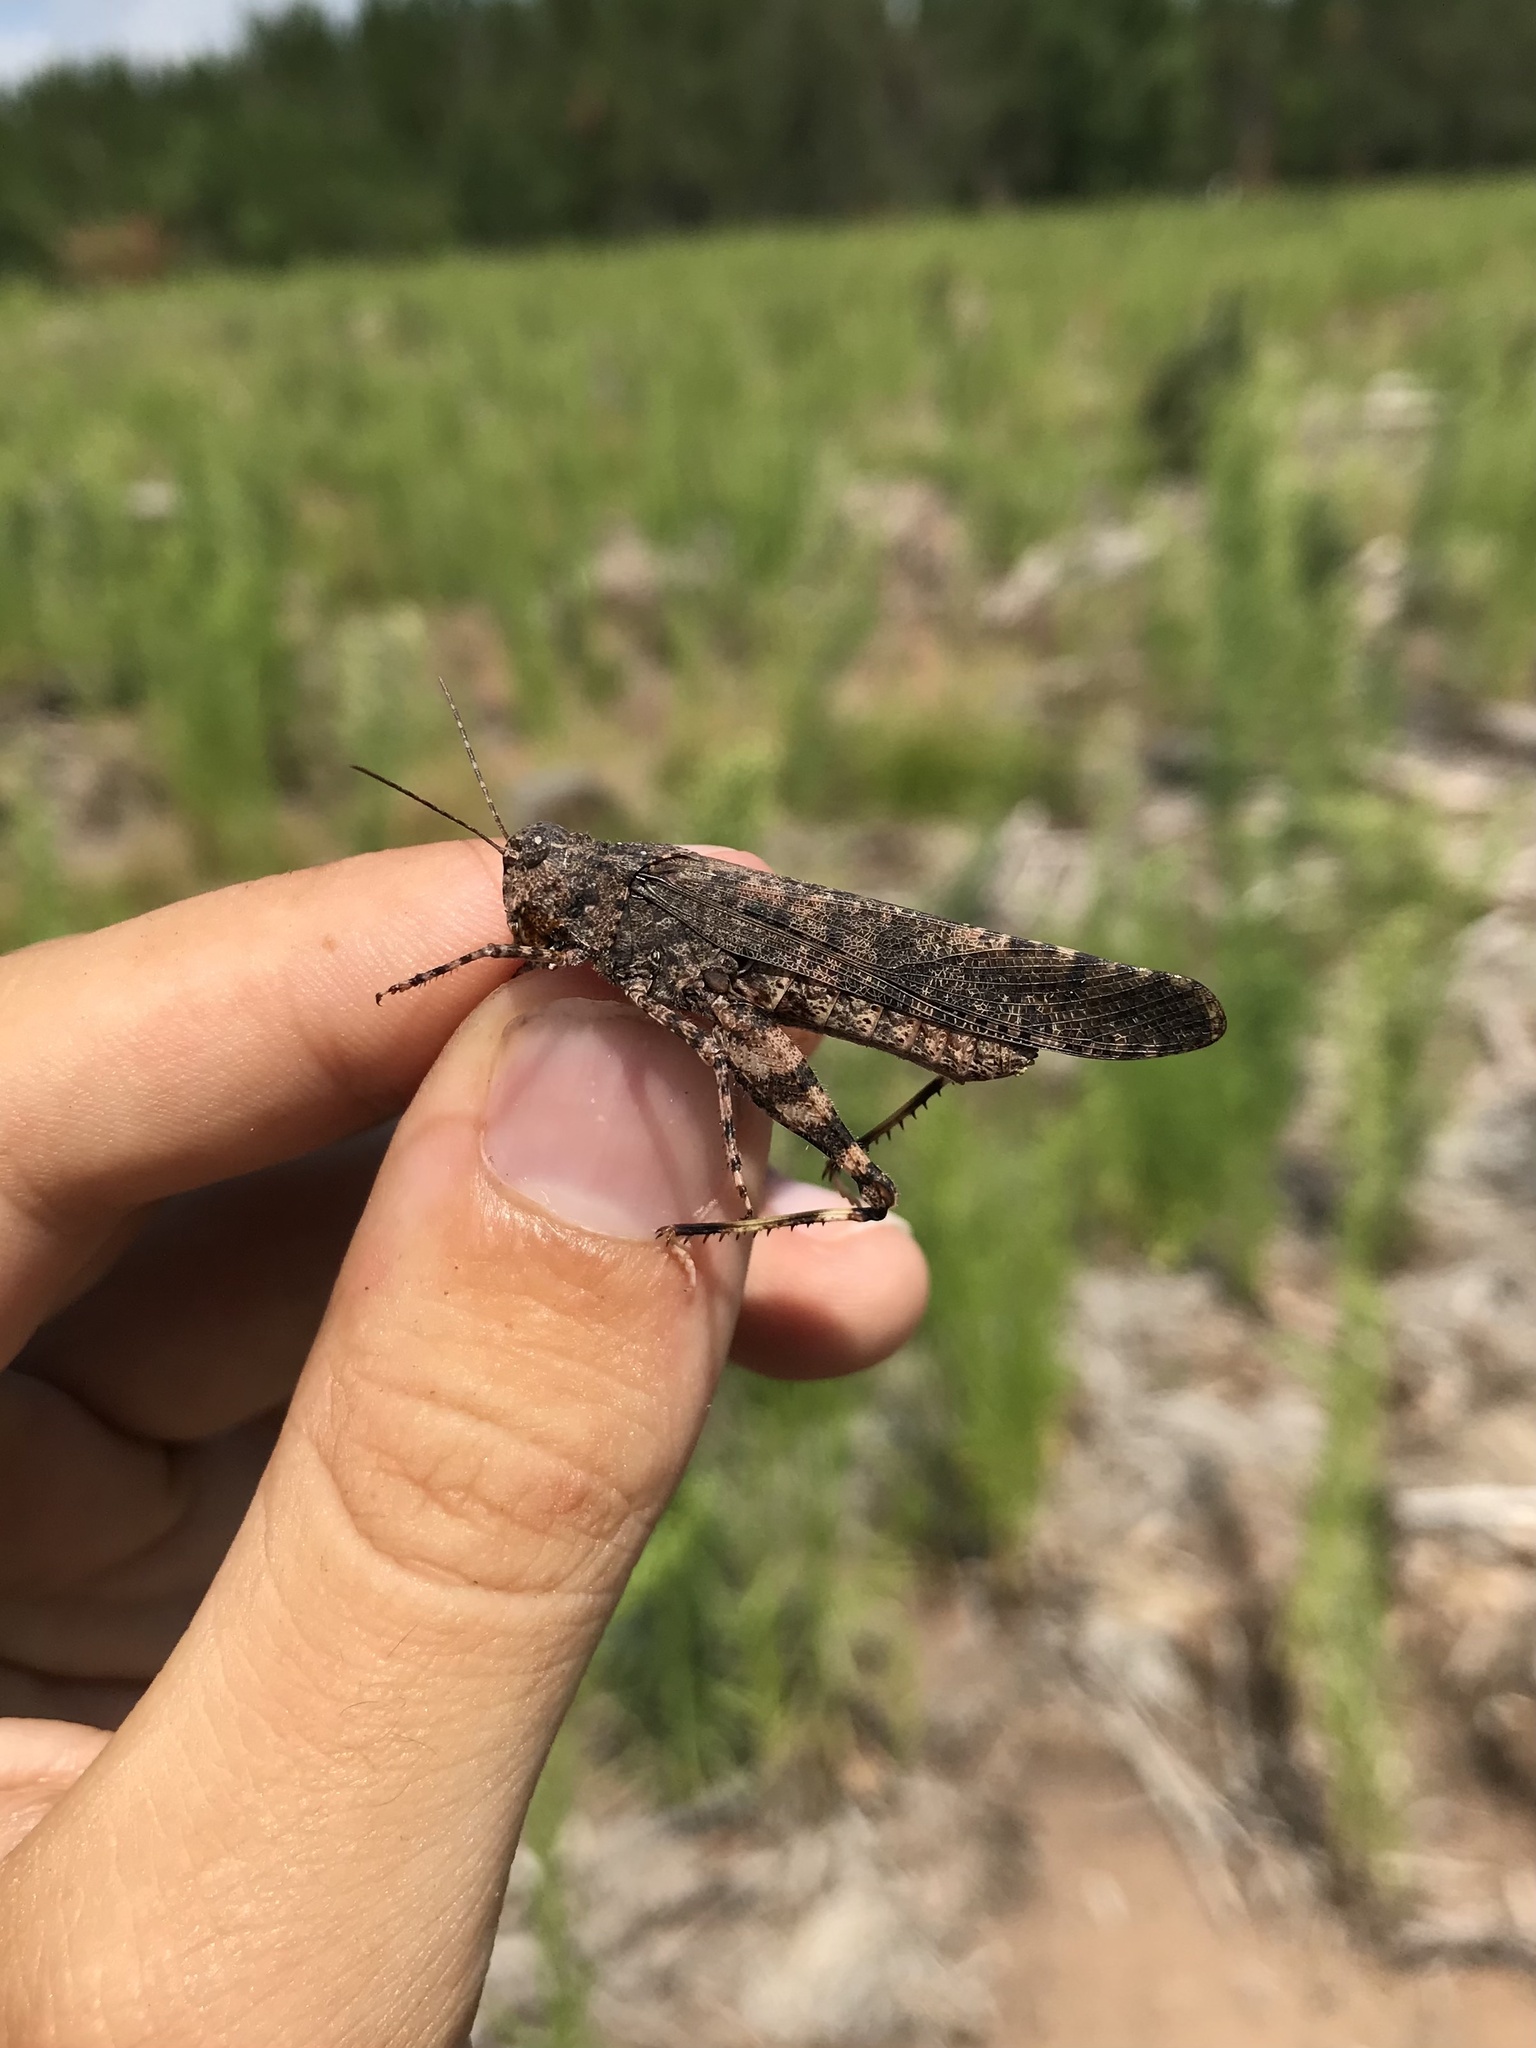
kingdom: Animalia
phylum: Arthropoda
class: Insecta
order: Orthoptera
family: Acrididae
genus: Trimerotropis
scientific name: Trimerotropis verruculata
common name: Crackling forest grasshopper
